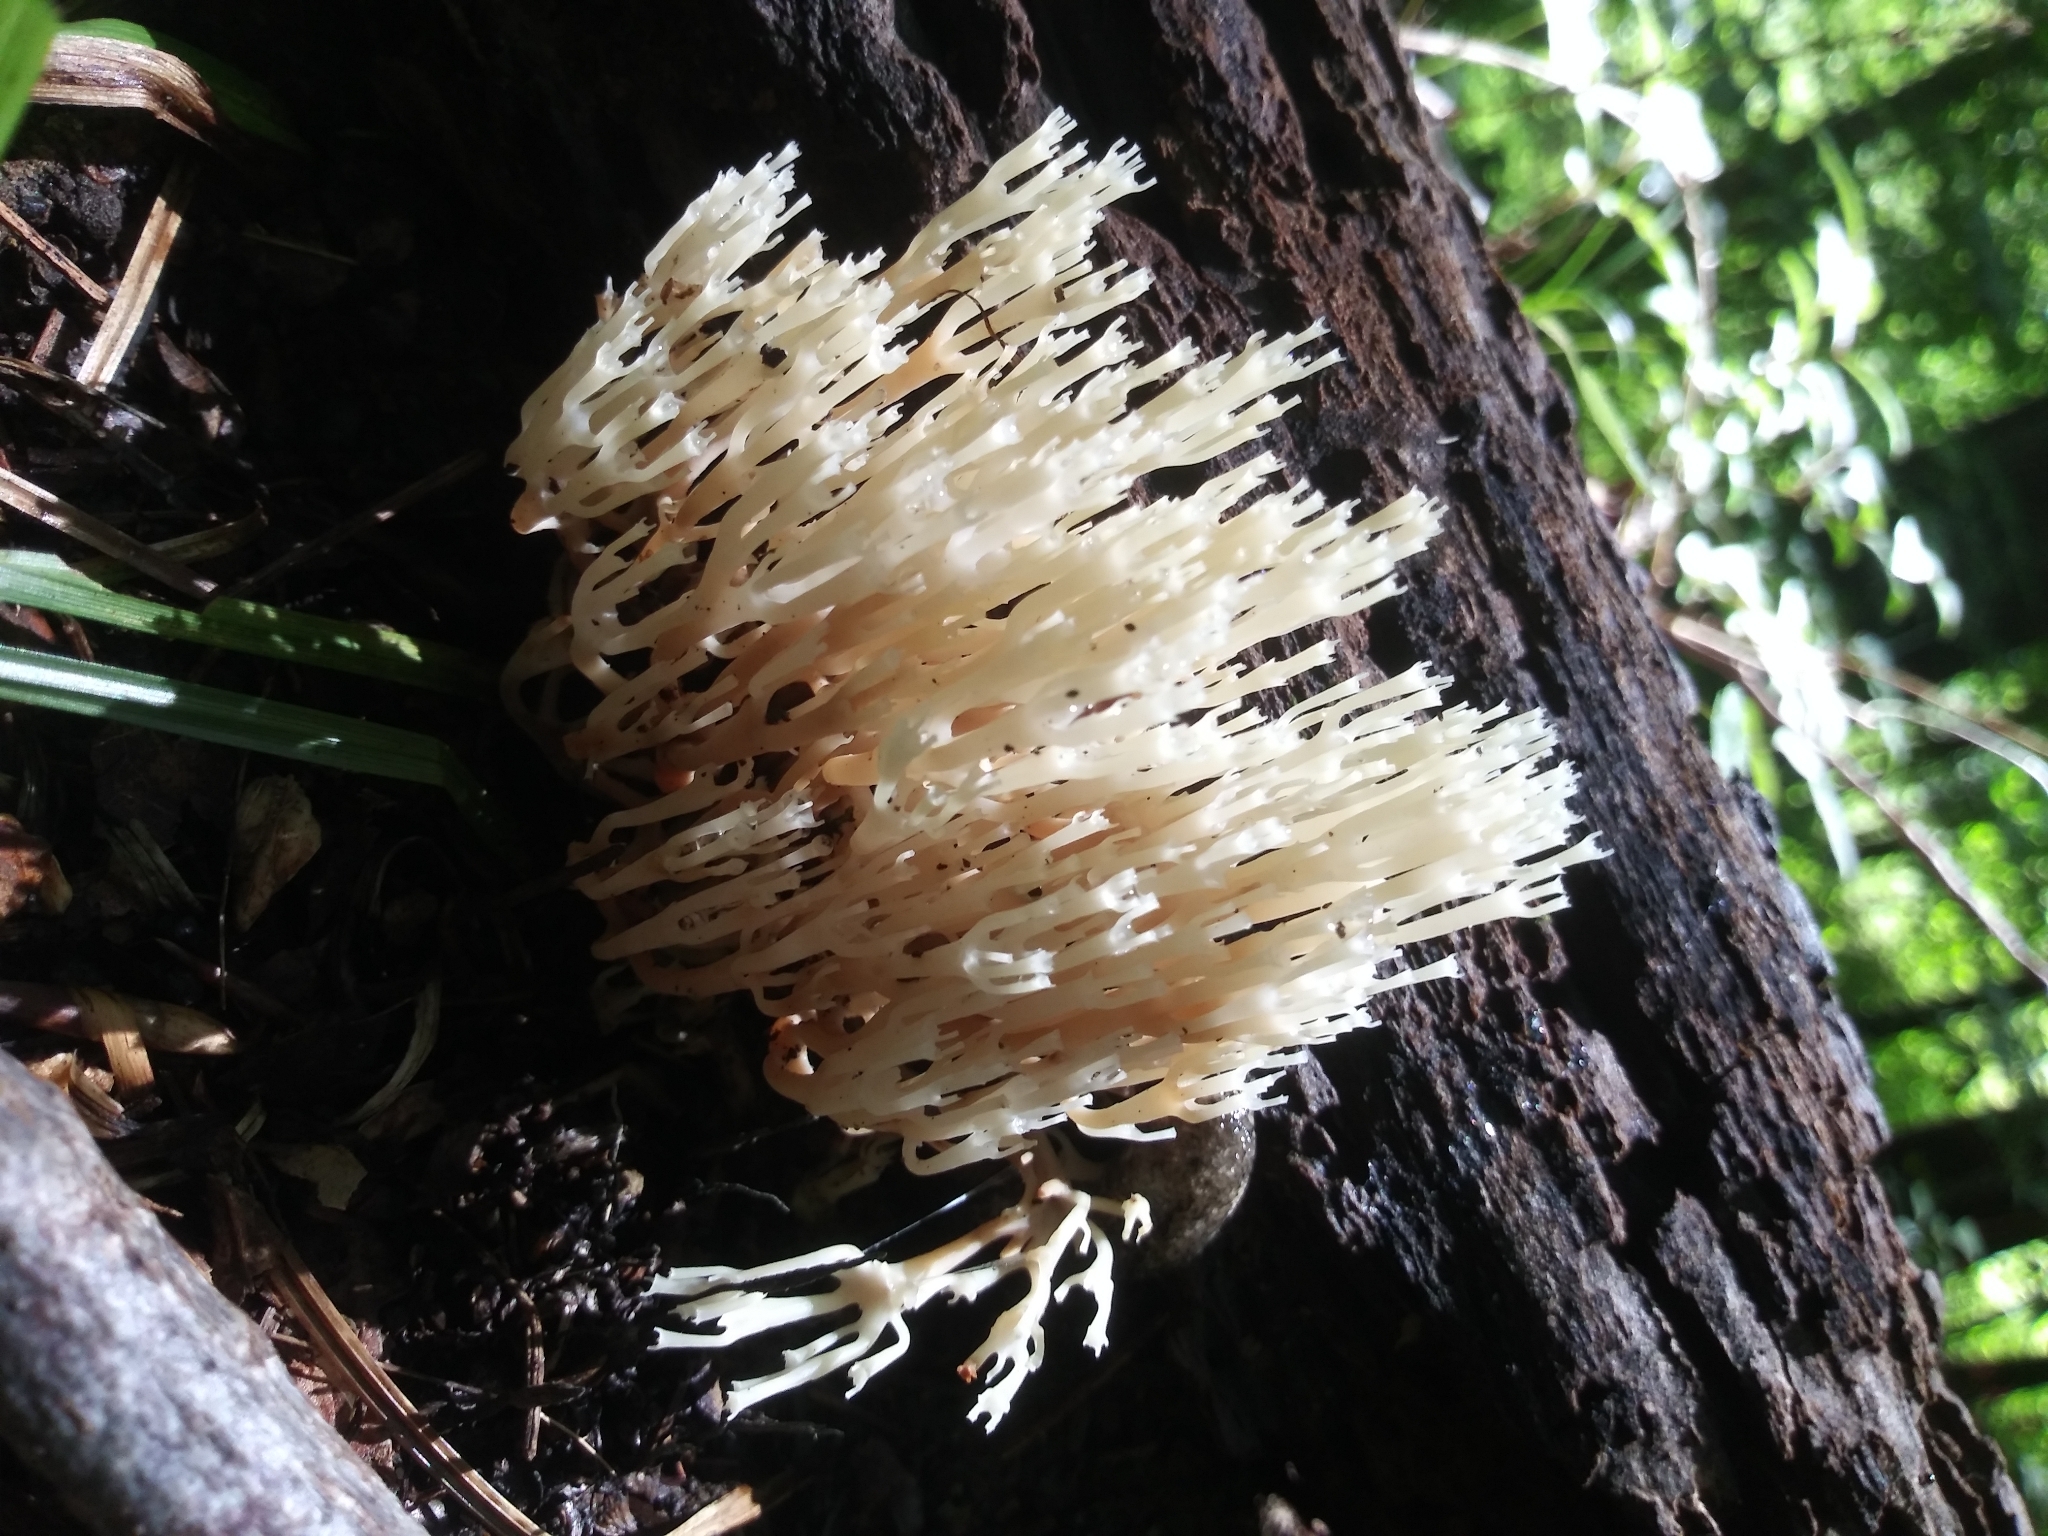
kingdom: Fungi
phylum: Basidiomycota
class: Agaricomycetes
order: Russulales
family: Auriscalpiaceae
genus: Artomyces
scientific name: Artomyces pyxidatus
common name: Crown-tipped coral fungus
